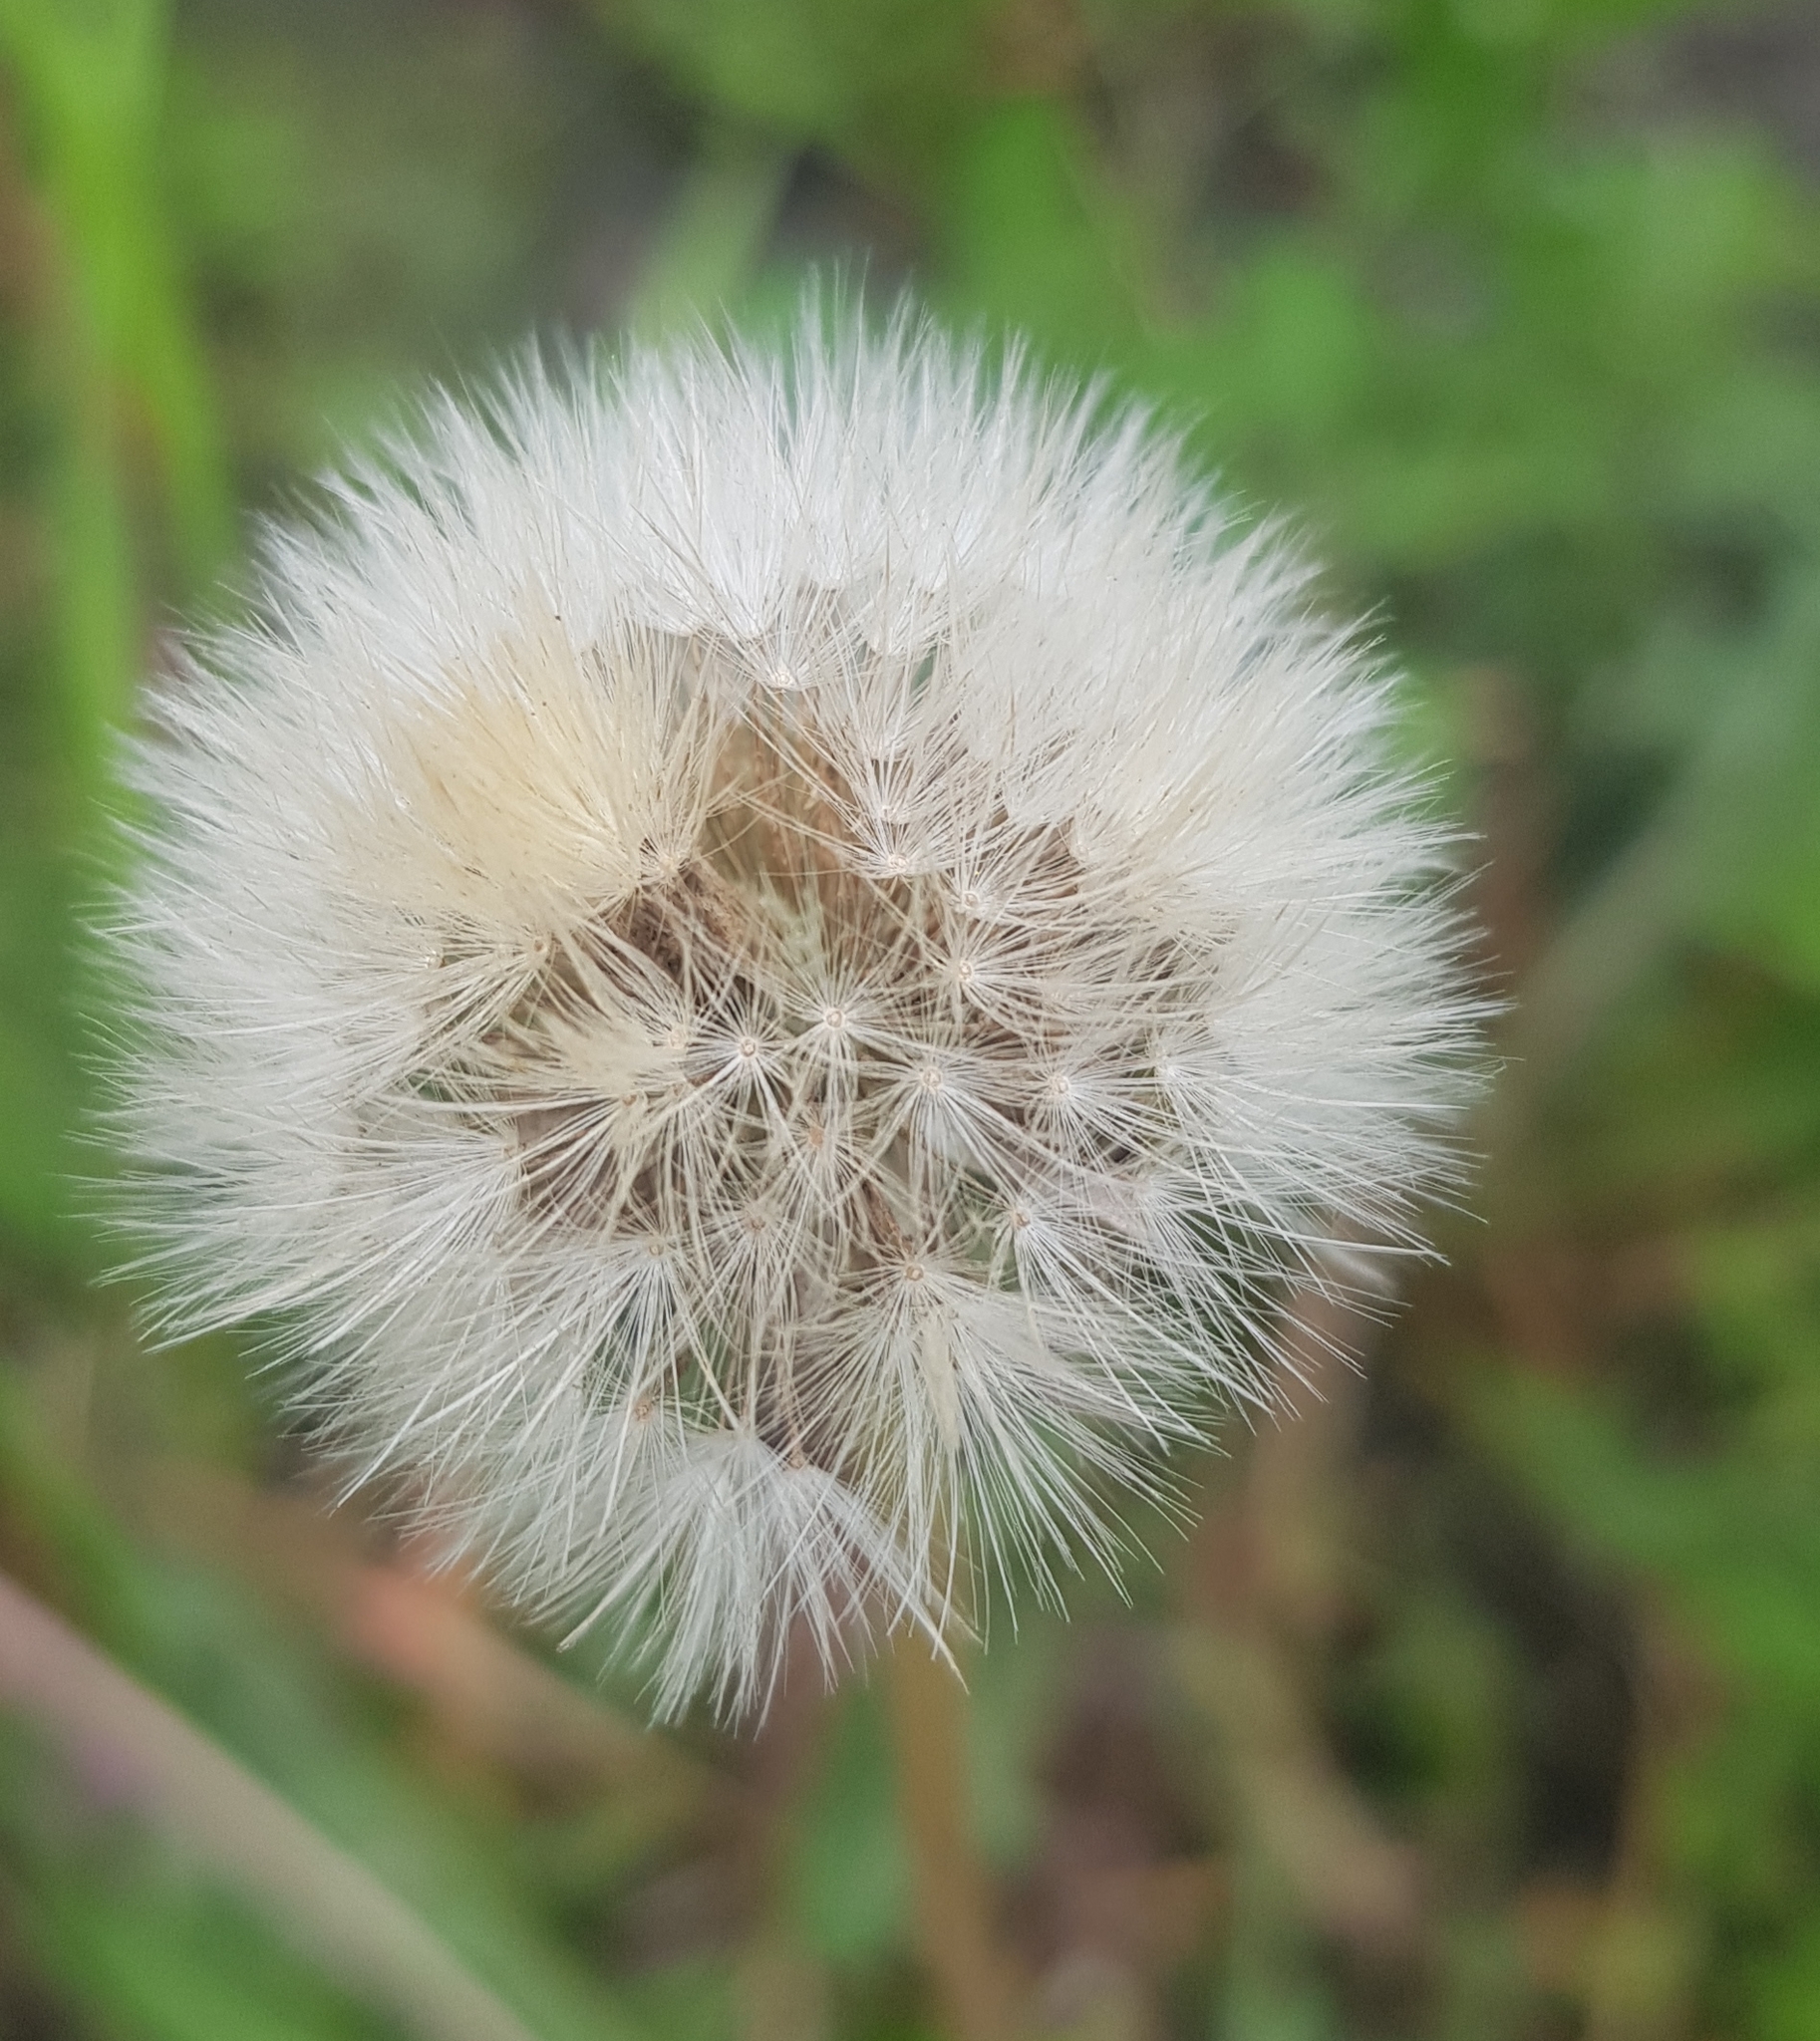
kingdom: Plantae
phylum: Tracheophyta
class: Magnoliopsida
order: Asterales
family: Asteraceae
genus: Taraxacum
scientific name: Taraxacum officinale
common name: Common dandelion
